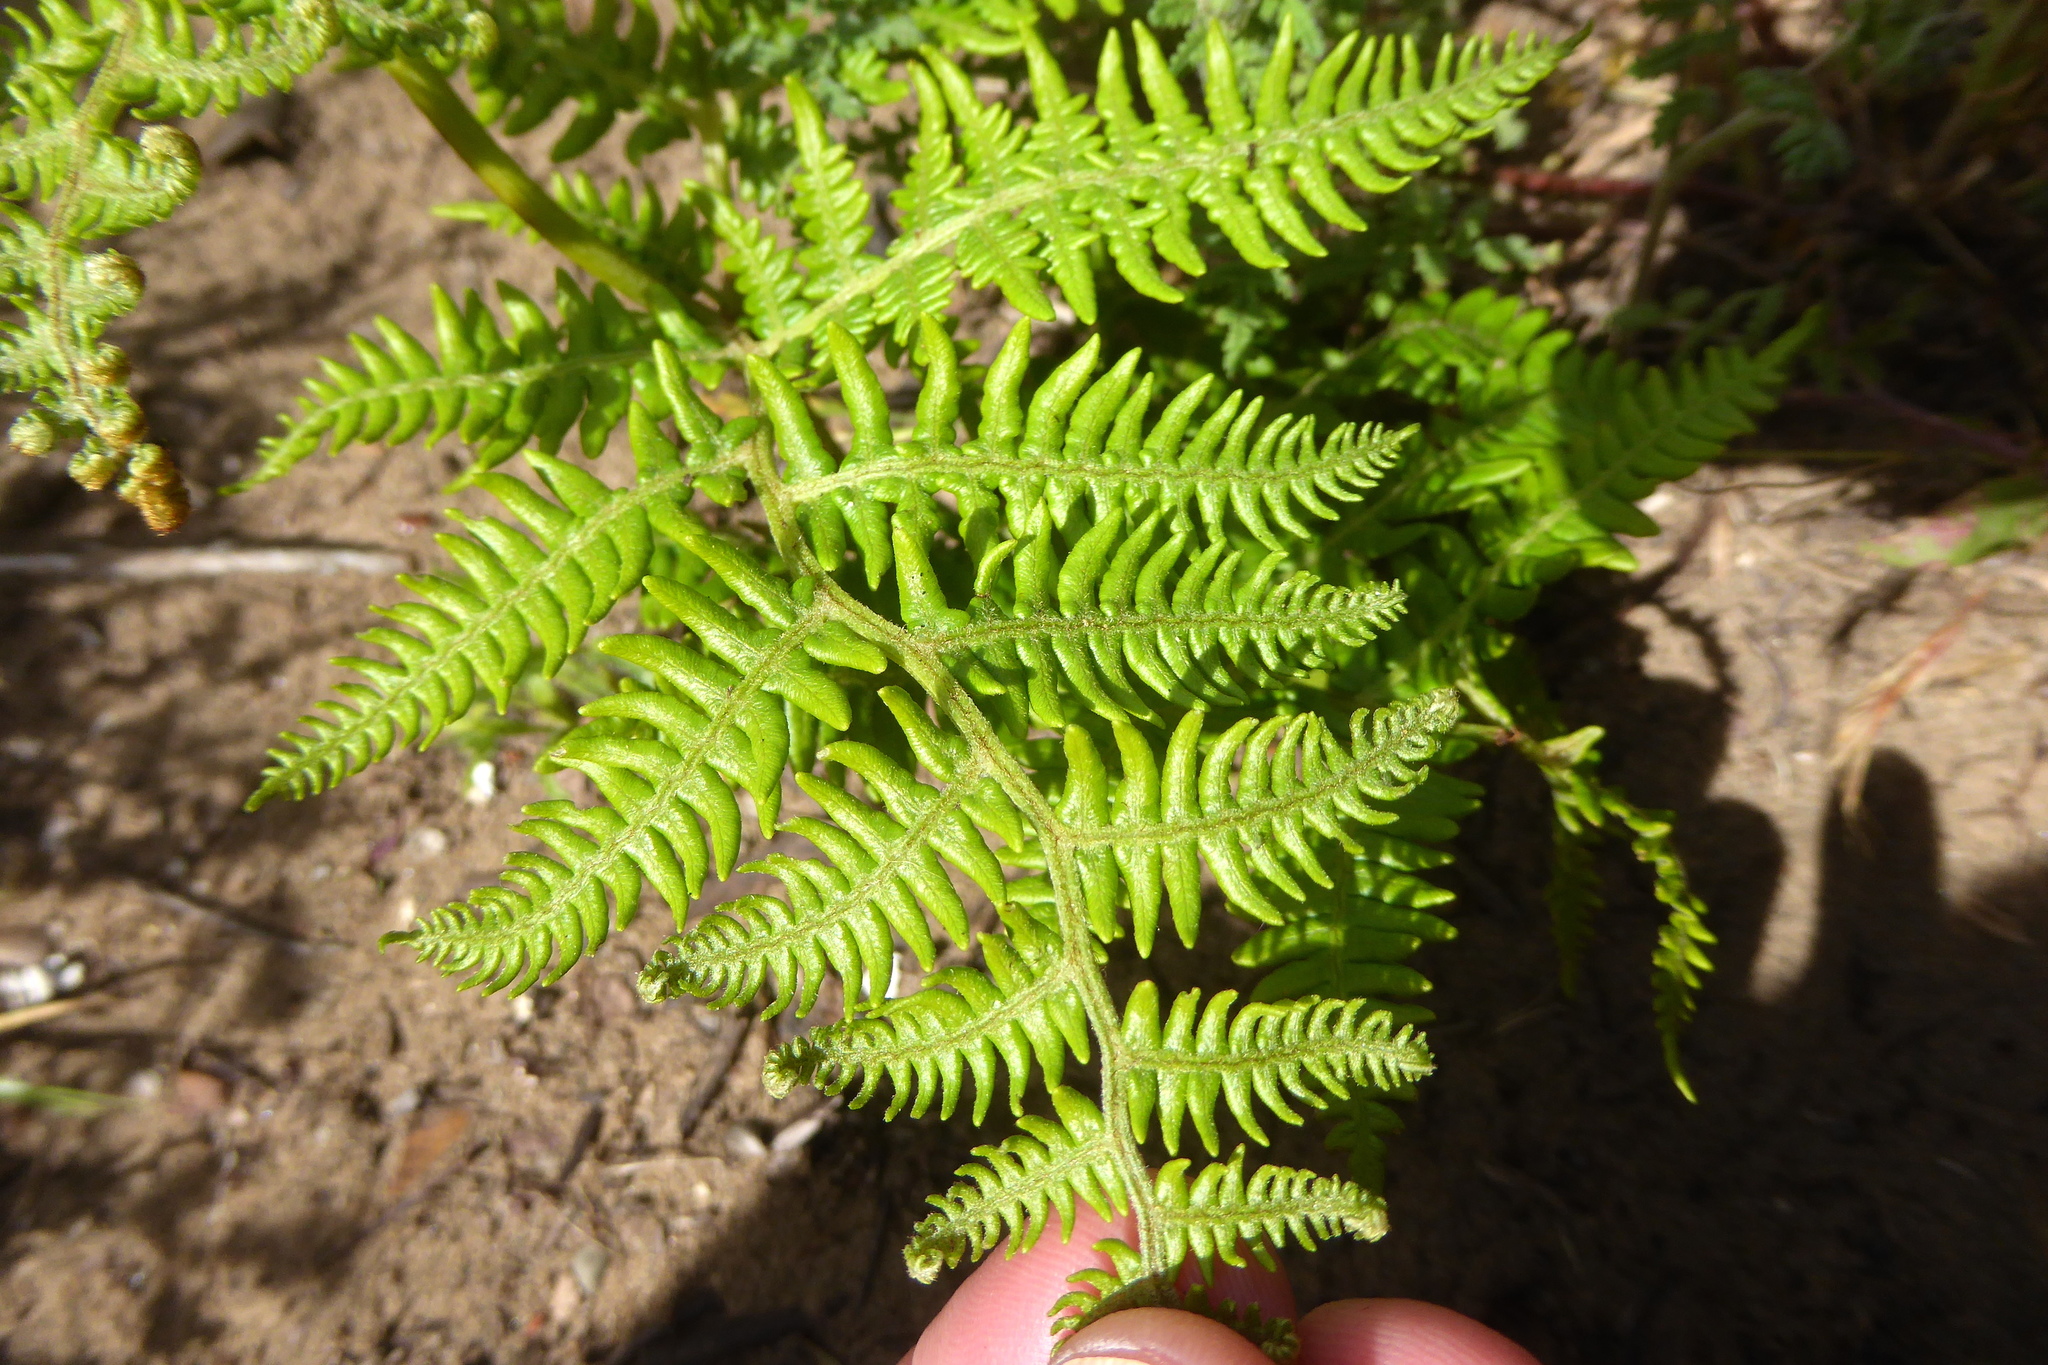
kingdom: Plantae
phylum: Tracheophyta
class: Polypodiopsida
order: Polypodiales
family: Dennstaedtiaceae
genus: Pteridium
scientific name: Pteridium aquilinum
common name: Bracken
